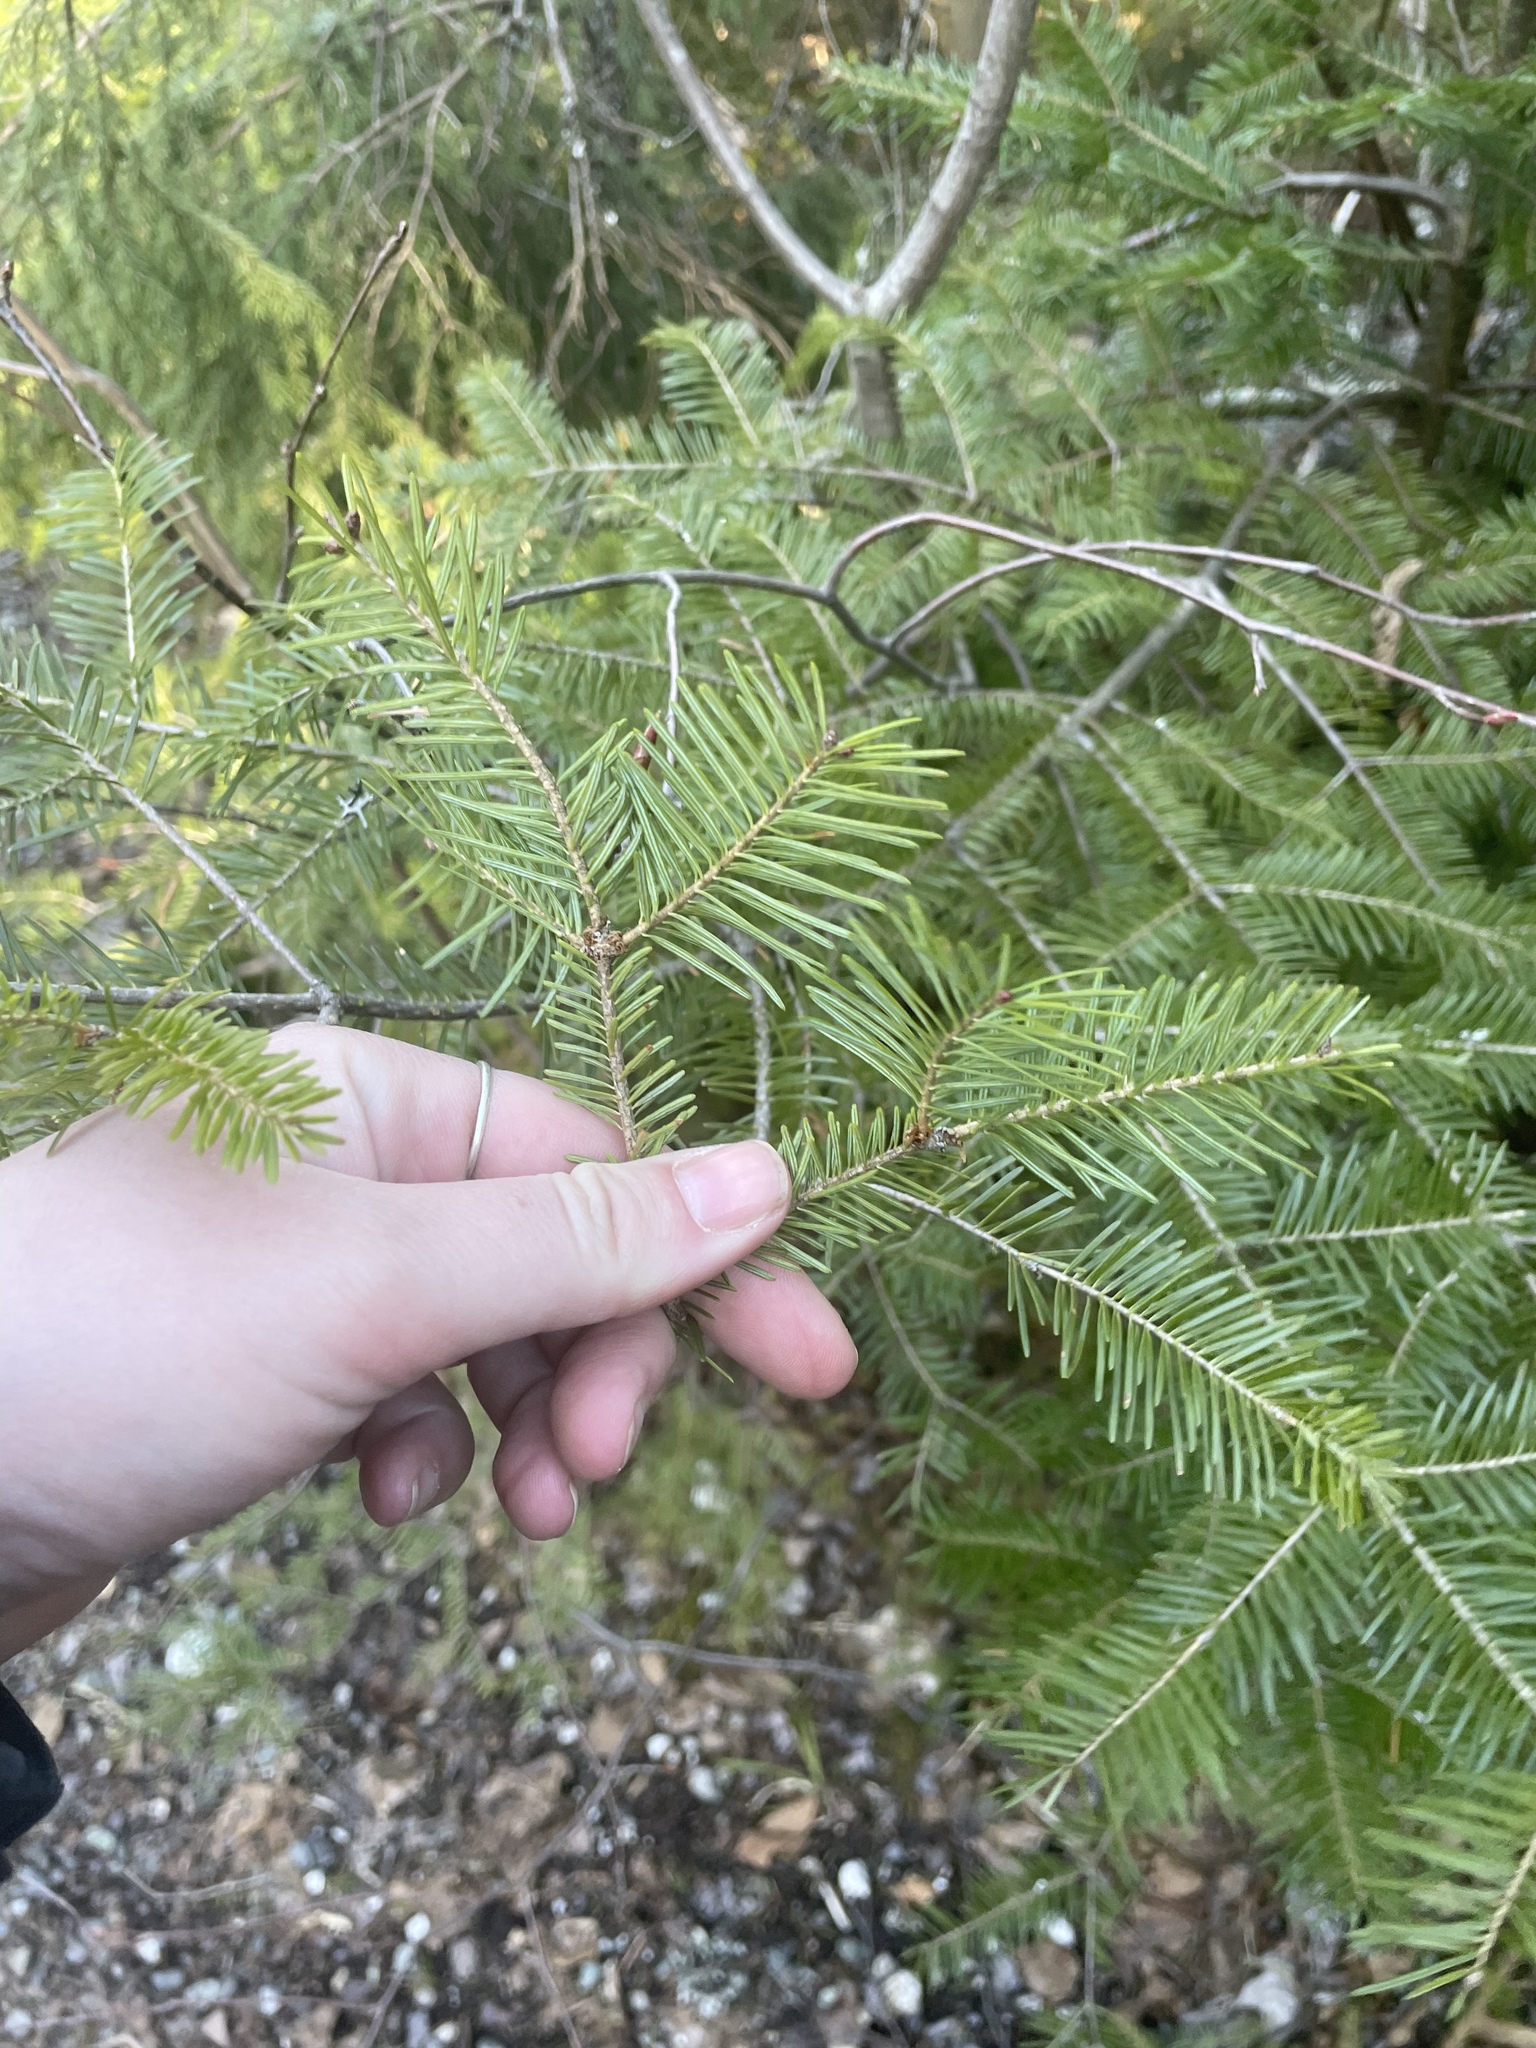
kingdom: Plantae
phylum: Tracheophyta
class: Pinopsida
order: Pinales
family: Pinaceae
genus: Abies
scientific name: Abies balsamea
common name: Balsam fir
